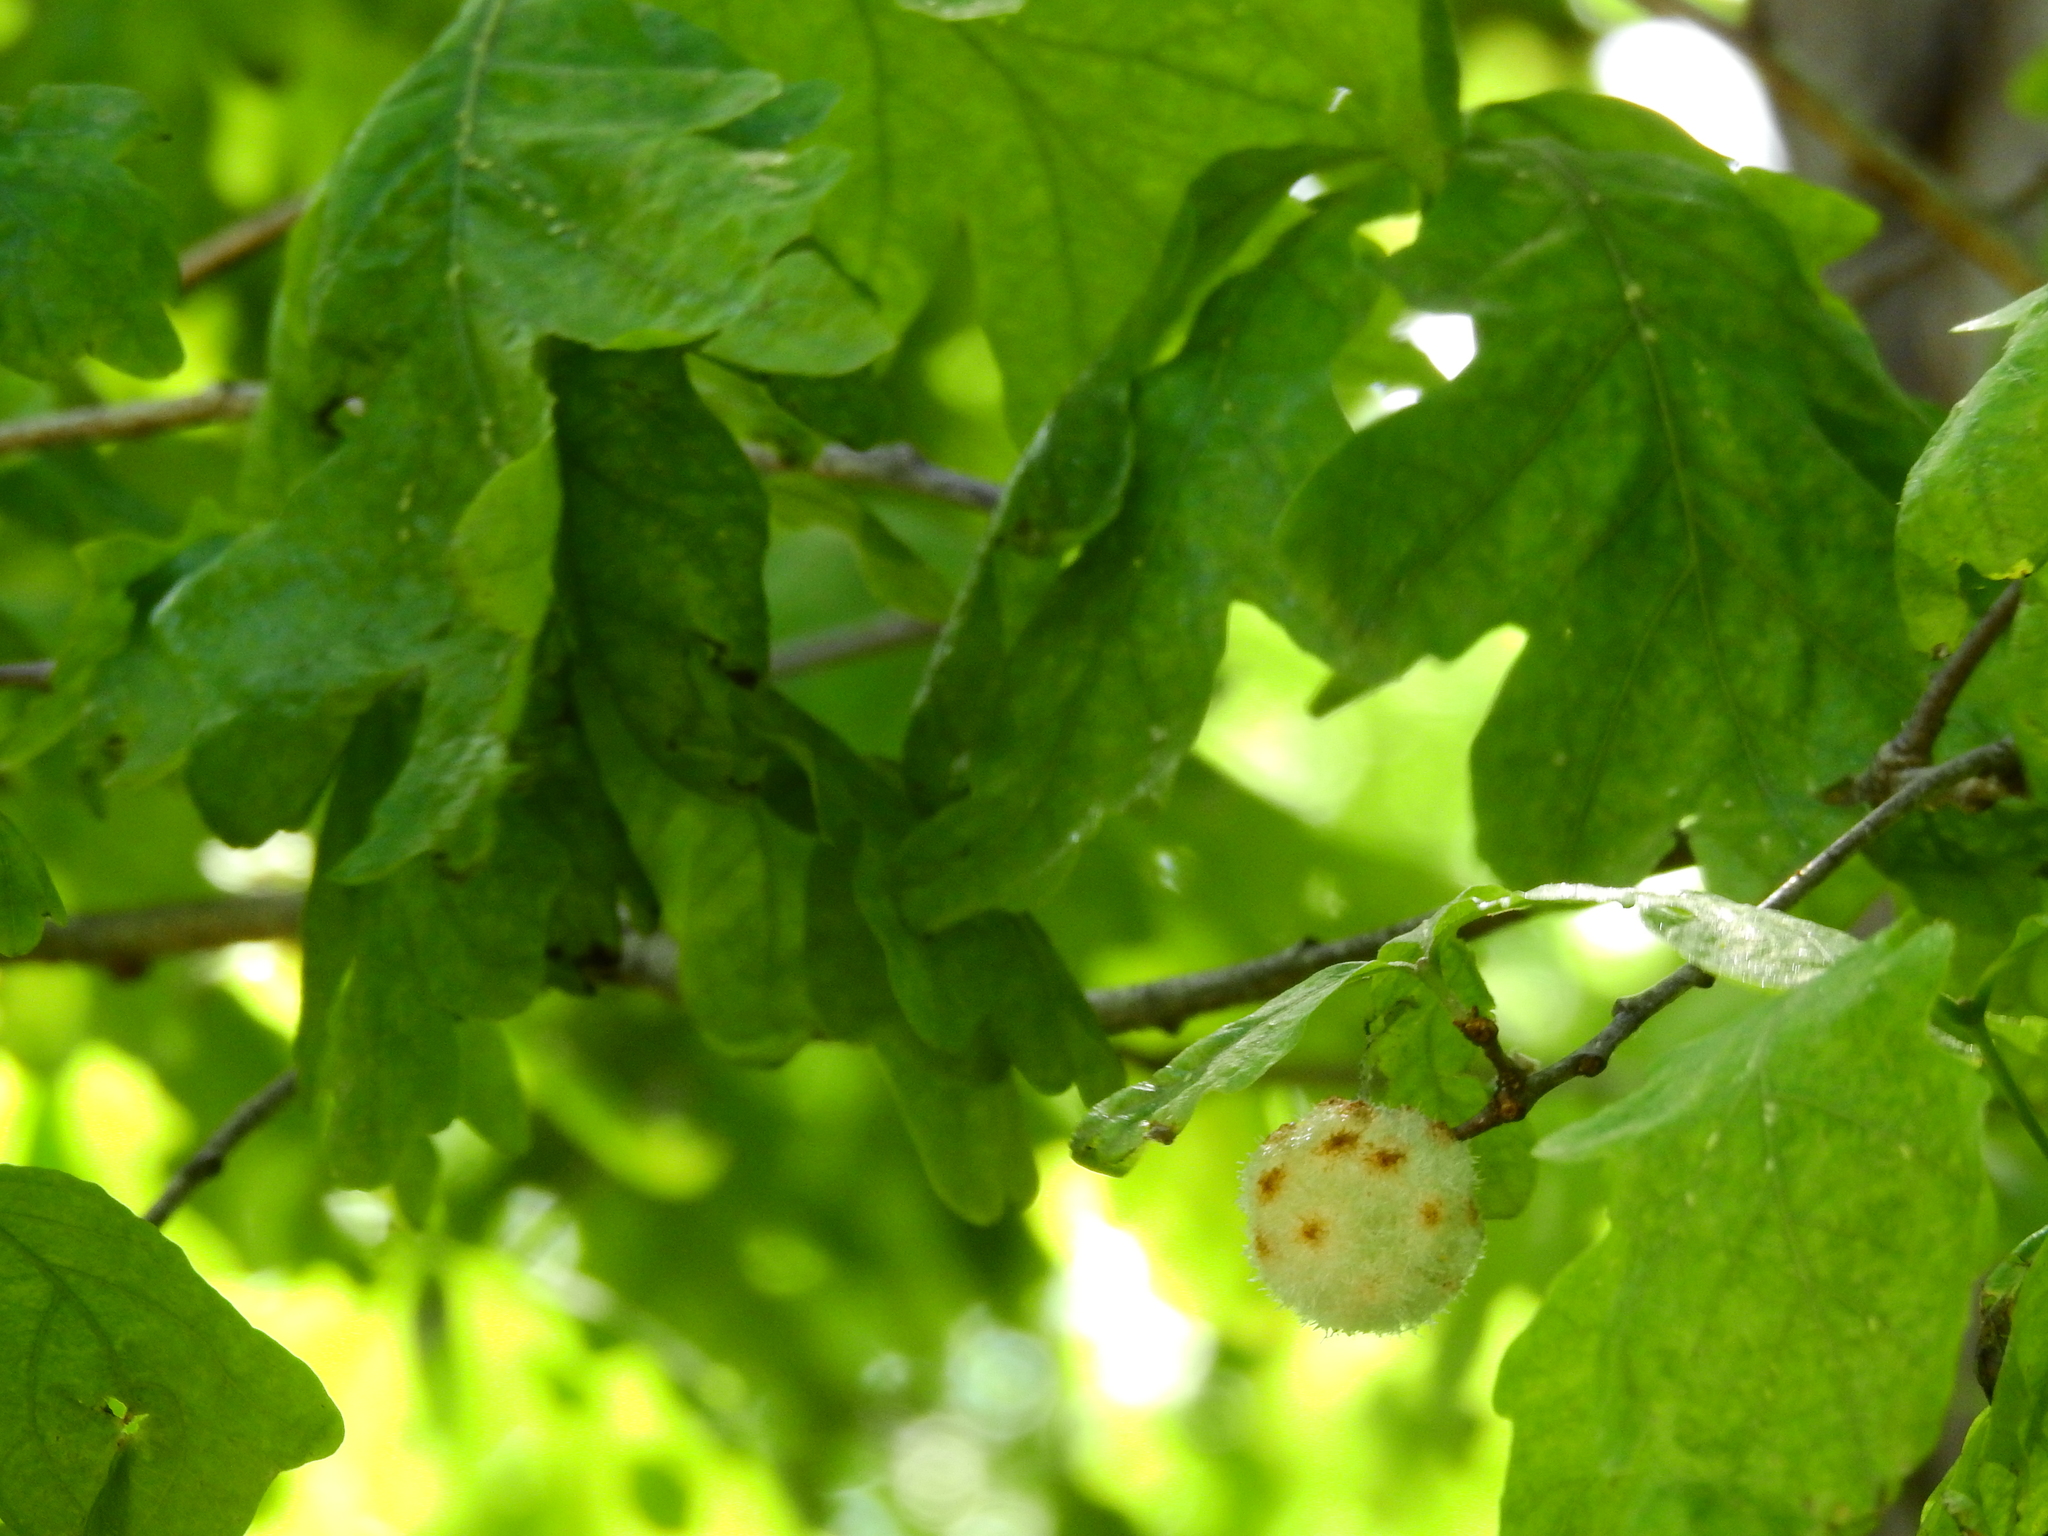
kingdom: Animalia
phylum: Arthropoda
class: Insecta
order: Hymenoptera
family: Cynipidae
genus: Callirhytis
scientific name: Callirhytis
